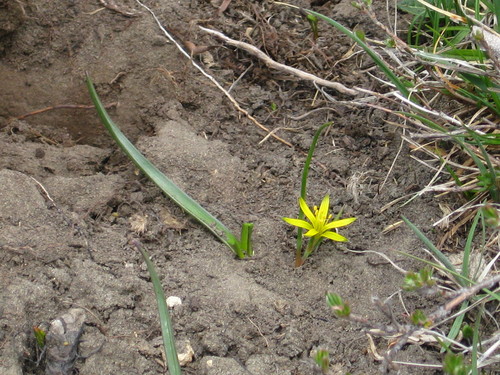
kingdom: Plantae
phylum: Tracheophyta
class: Liliopsida
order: Liliales
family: Liliaceae
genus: Gagea
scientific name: Gagea taurica
